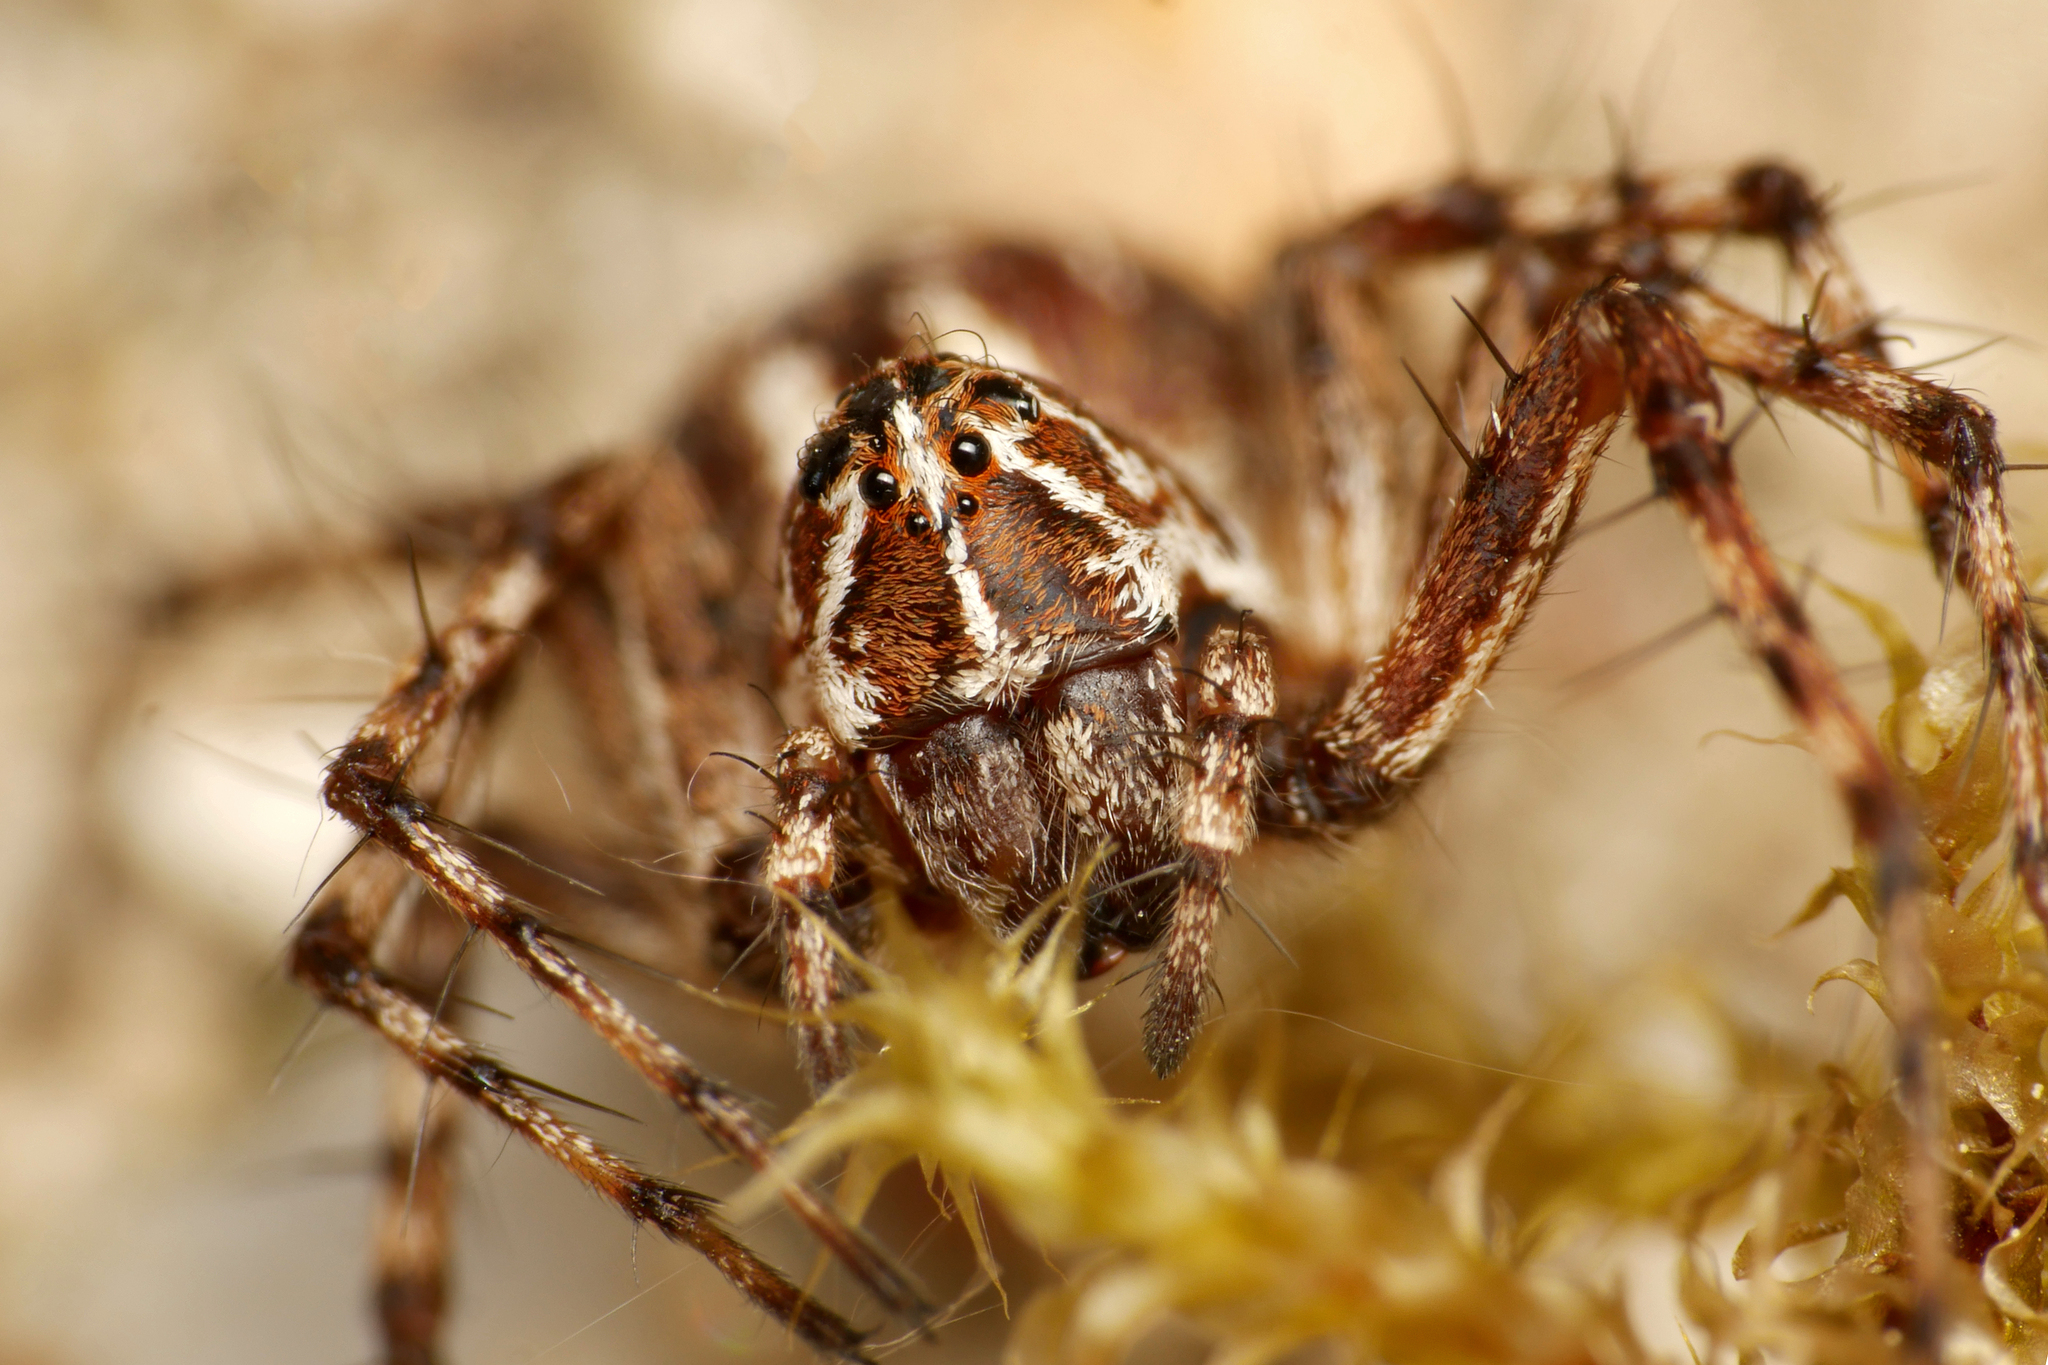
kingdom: Animalia
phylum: Arthropoda
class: Arachnida
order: Araneae
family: Oxyopidae
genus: Oxyopes
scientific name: Oxyopes ramosus
